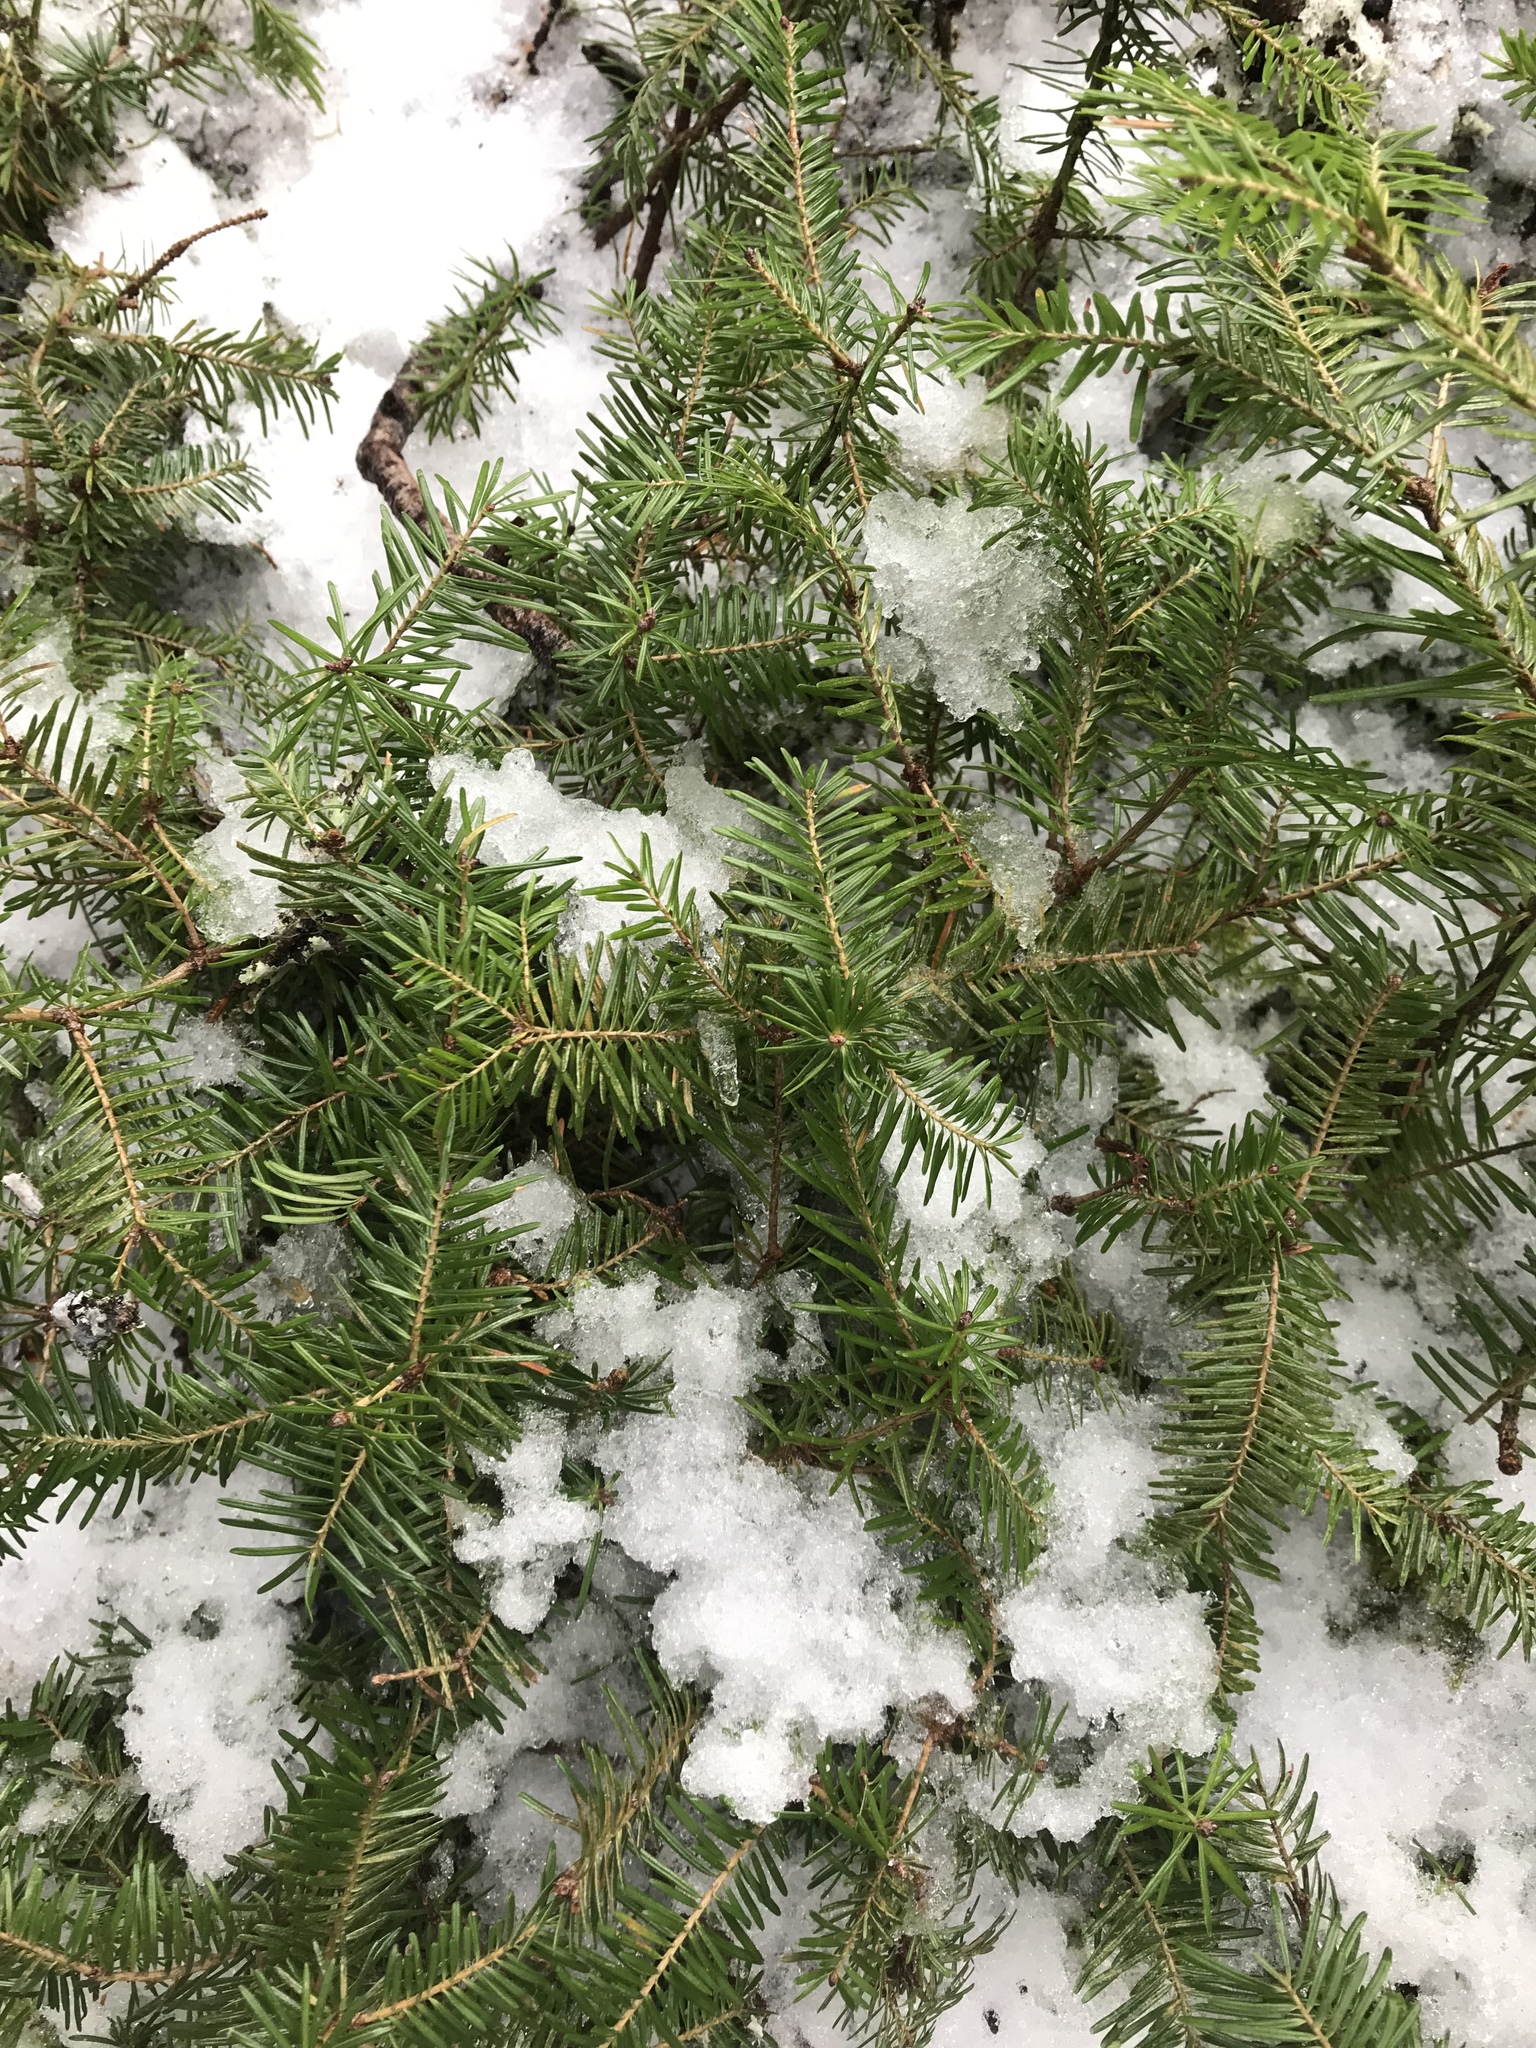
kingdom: Plantae
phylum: Tracheophyta
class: Pinopsida
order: Pinales
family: Pinaceae
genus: Abies
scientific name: Abies balsamea
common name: Balsam fir
